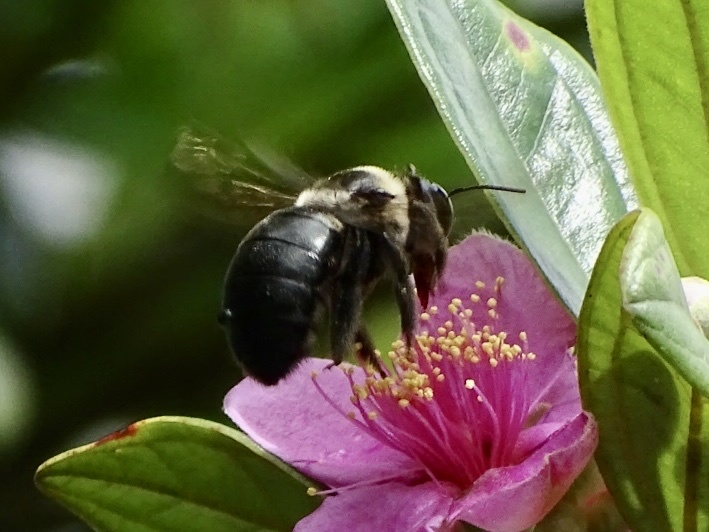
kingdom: Animalia
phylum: Arthropoda
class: Insecta
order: Hymenoptera
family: Apidae
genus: Xylocopa
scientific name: Xylocopa dejeanii
